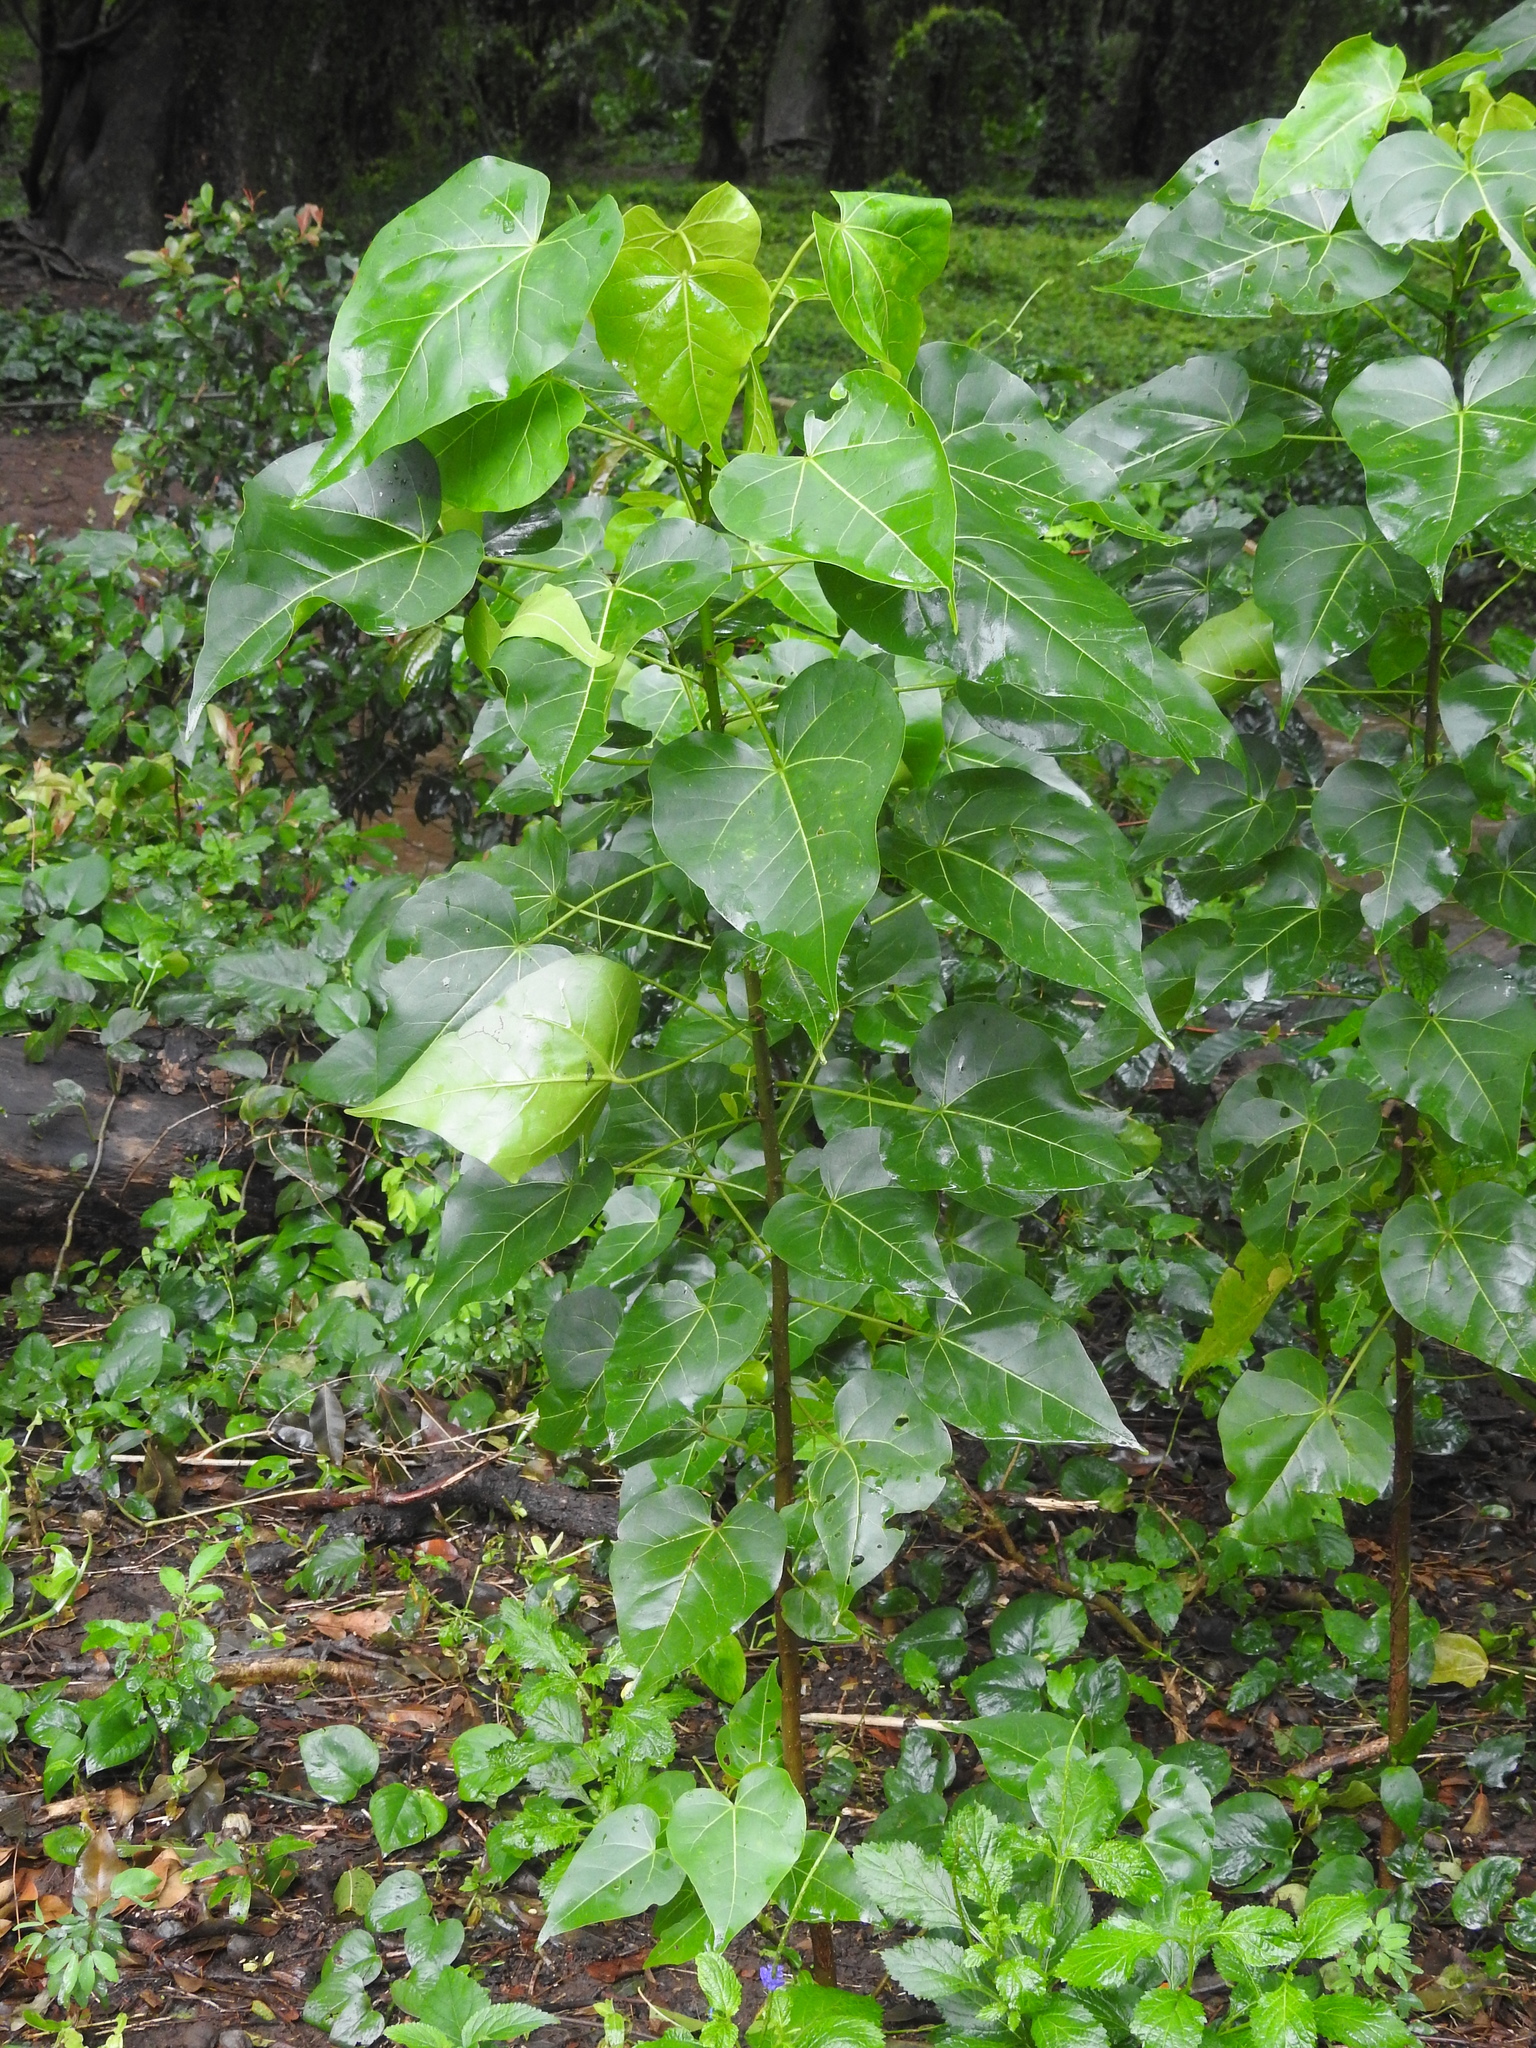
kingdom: Plantae
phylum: Tracheophyta
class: Magnoliopsida
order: Malvales
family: Malvaceae
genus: Thespesia
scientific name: Thespesia populnea
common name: Seaside mahoe
